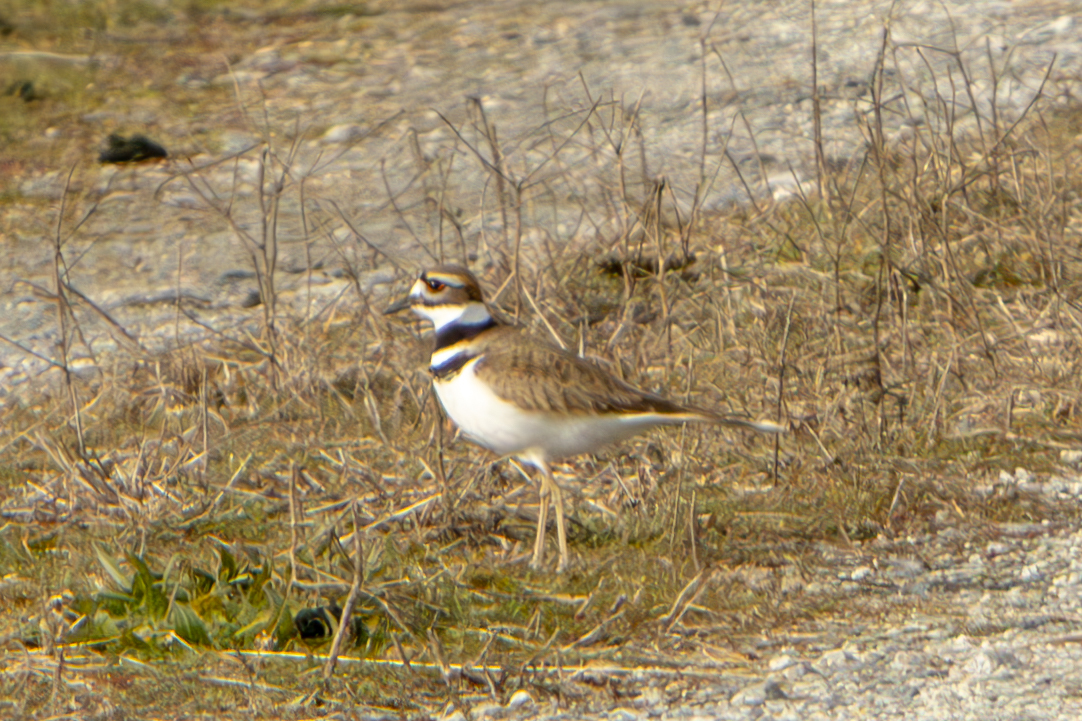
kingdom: Animalia
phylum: Chordata
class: Aves
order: Charadriiformes
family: Charadriidae
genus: Charadrius
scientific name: Charadrius vociferus
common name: Killdeer
